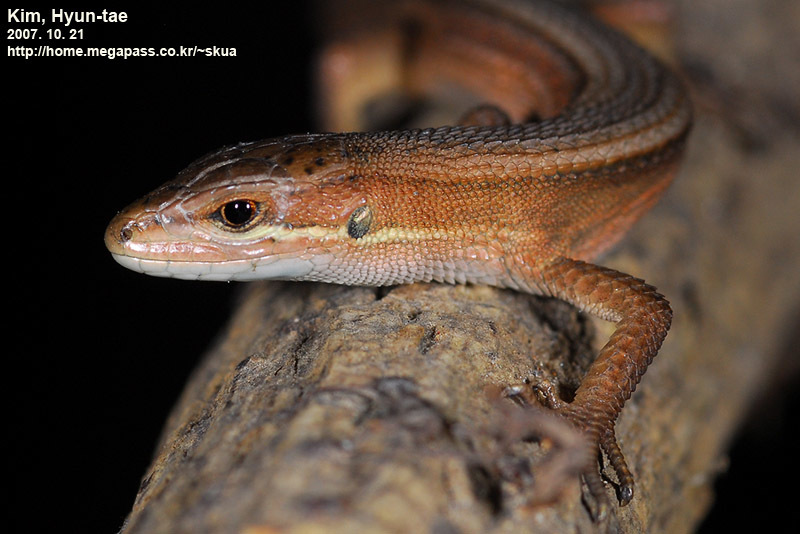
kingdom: Animalia
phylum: Chordata
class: Squamata
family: Lacertidae
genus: Takydromus
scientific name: Takydromus wolteri
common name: Mountain grass lizard
